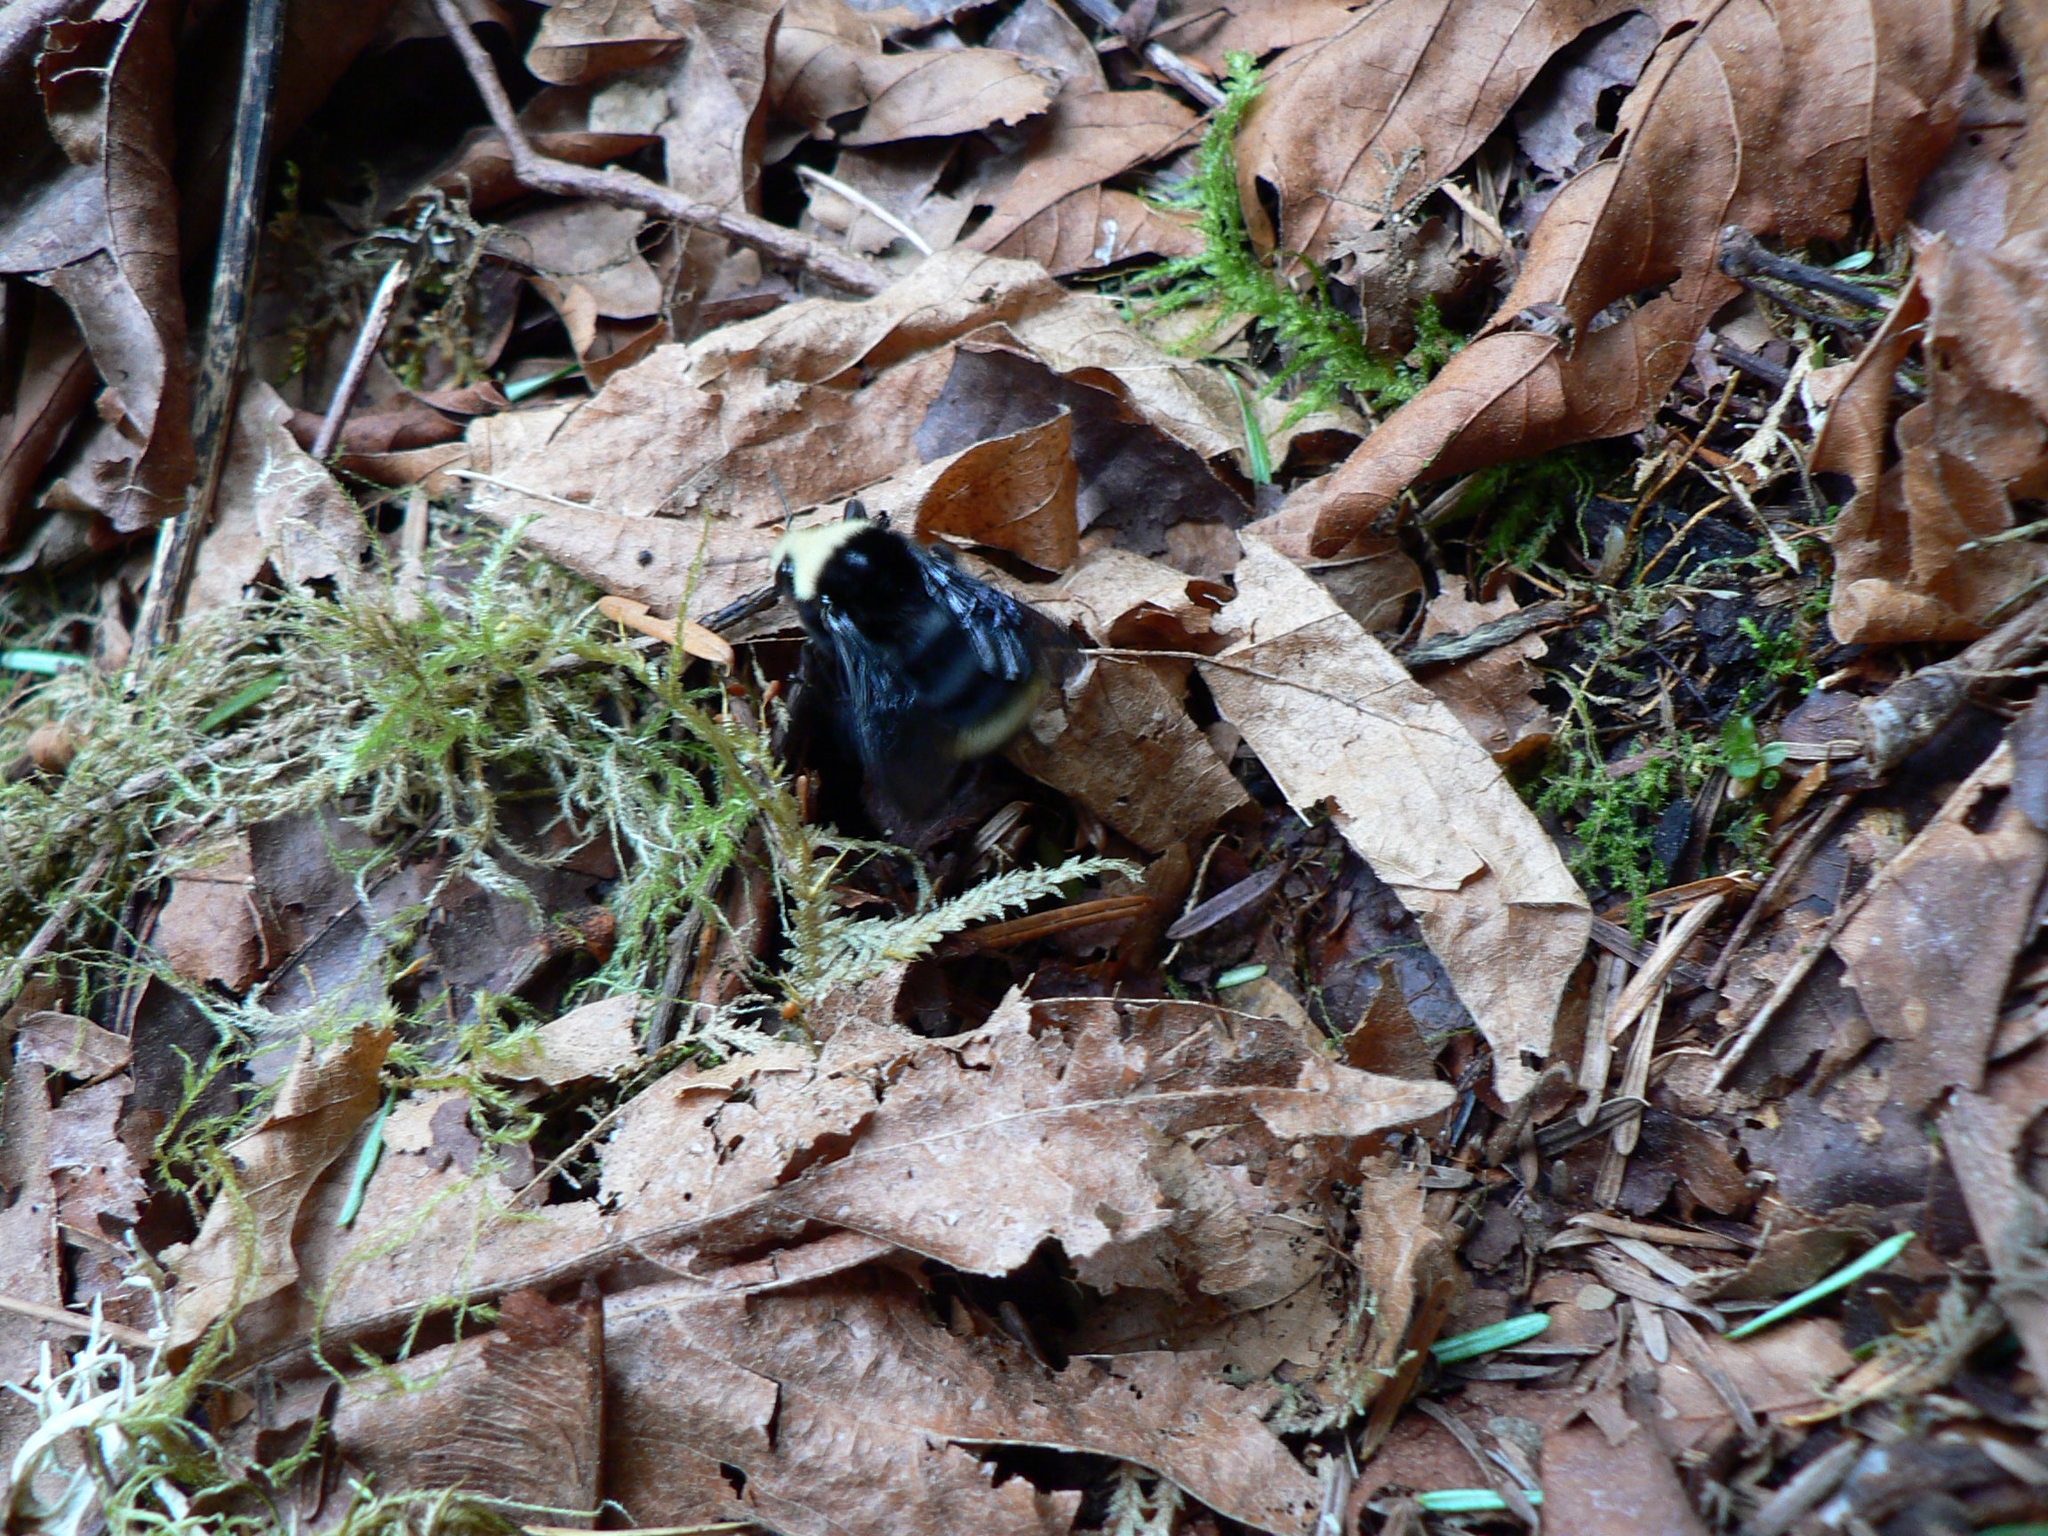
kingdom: Animalia
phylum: Arthropoda
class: Insecta
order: Hymenoptera
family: Apidae
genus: Bombus
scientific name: Bombus vosnesenskii
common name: Vosnesensky bumble bee
